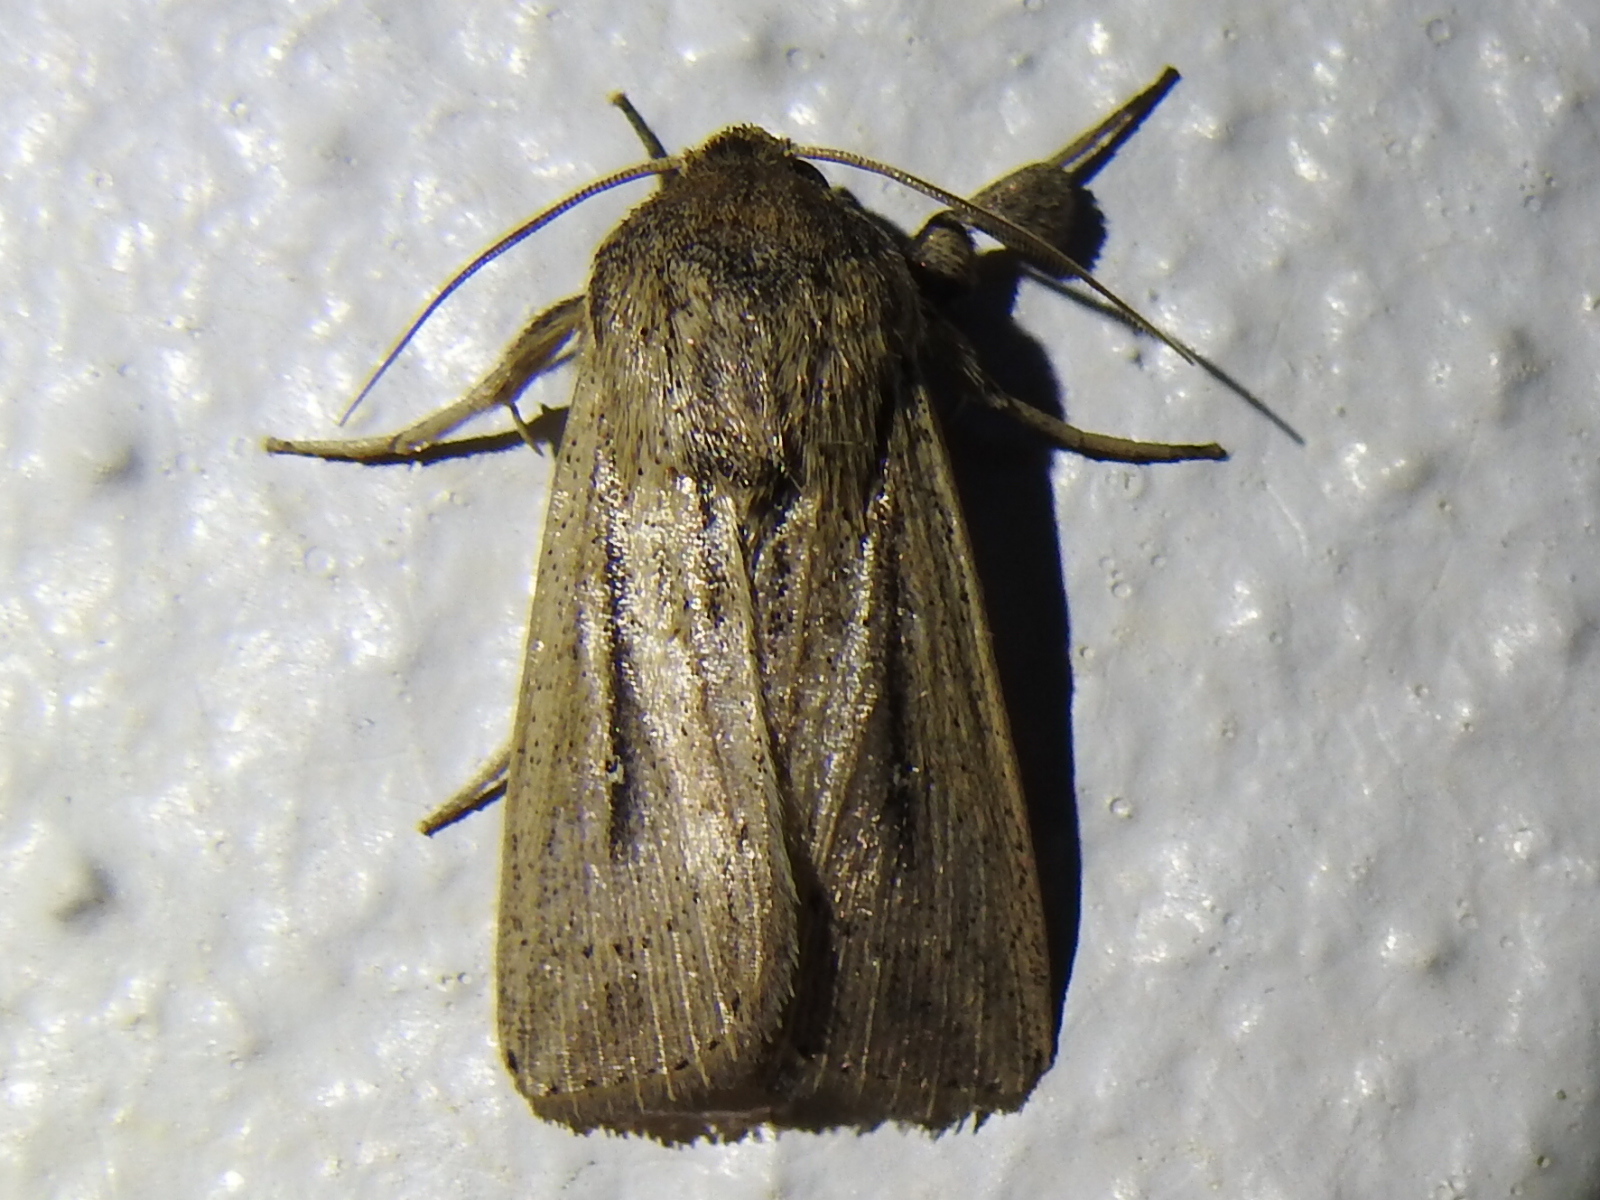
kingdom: Animalia
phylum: Arthropoda
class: Insecta
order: Lepidoptera
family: Noctuidae
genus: Leucania
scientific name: Leucania incognita
